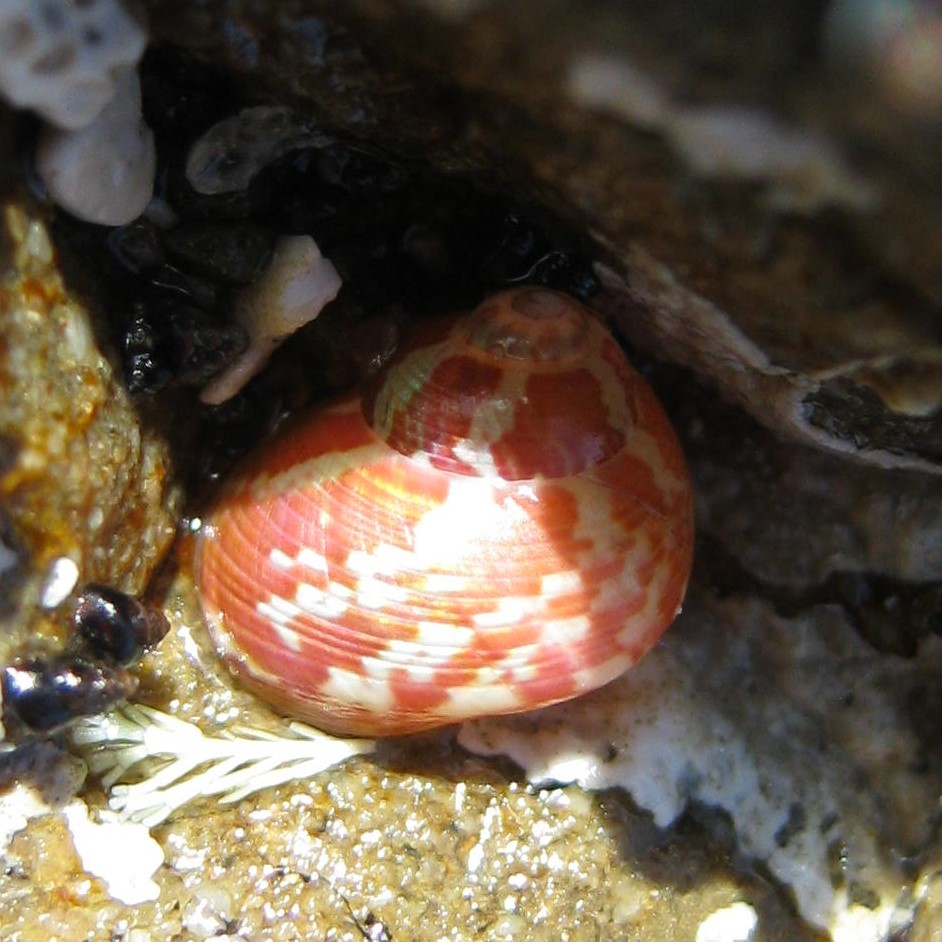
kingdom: Animalia
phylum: Mollusca
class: Gastropoda
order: Trochida
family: Trochidae
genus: Cantharidus
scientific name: Cantharidus dilatatus
